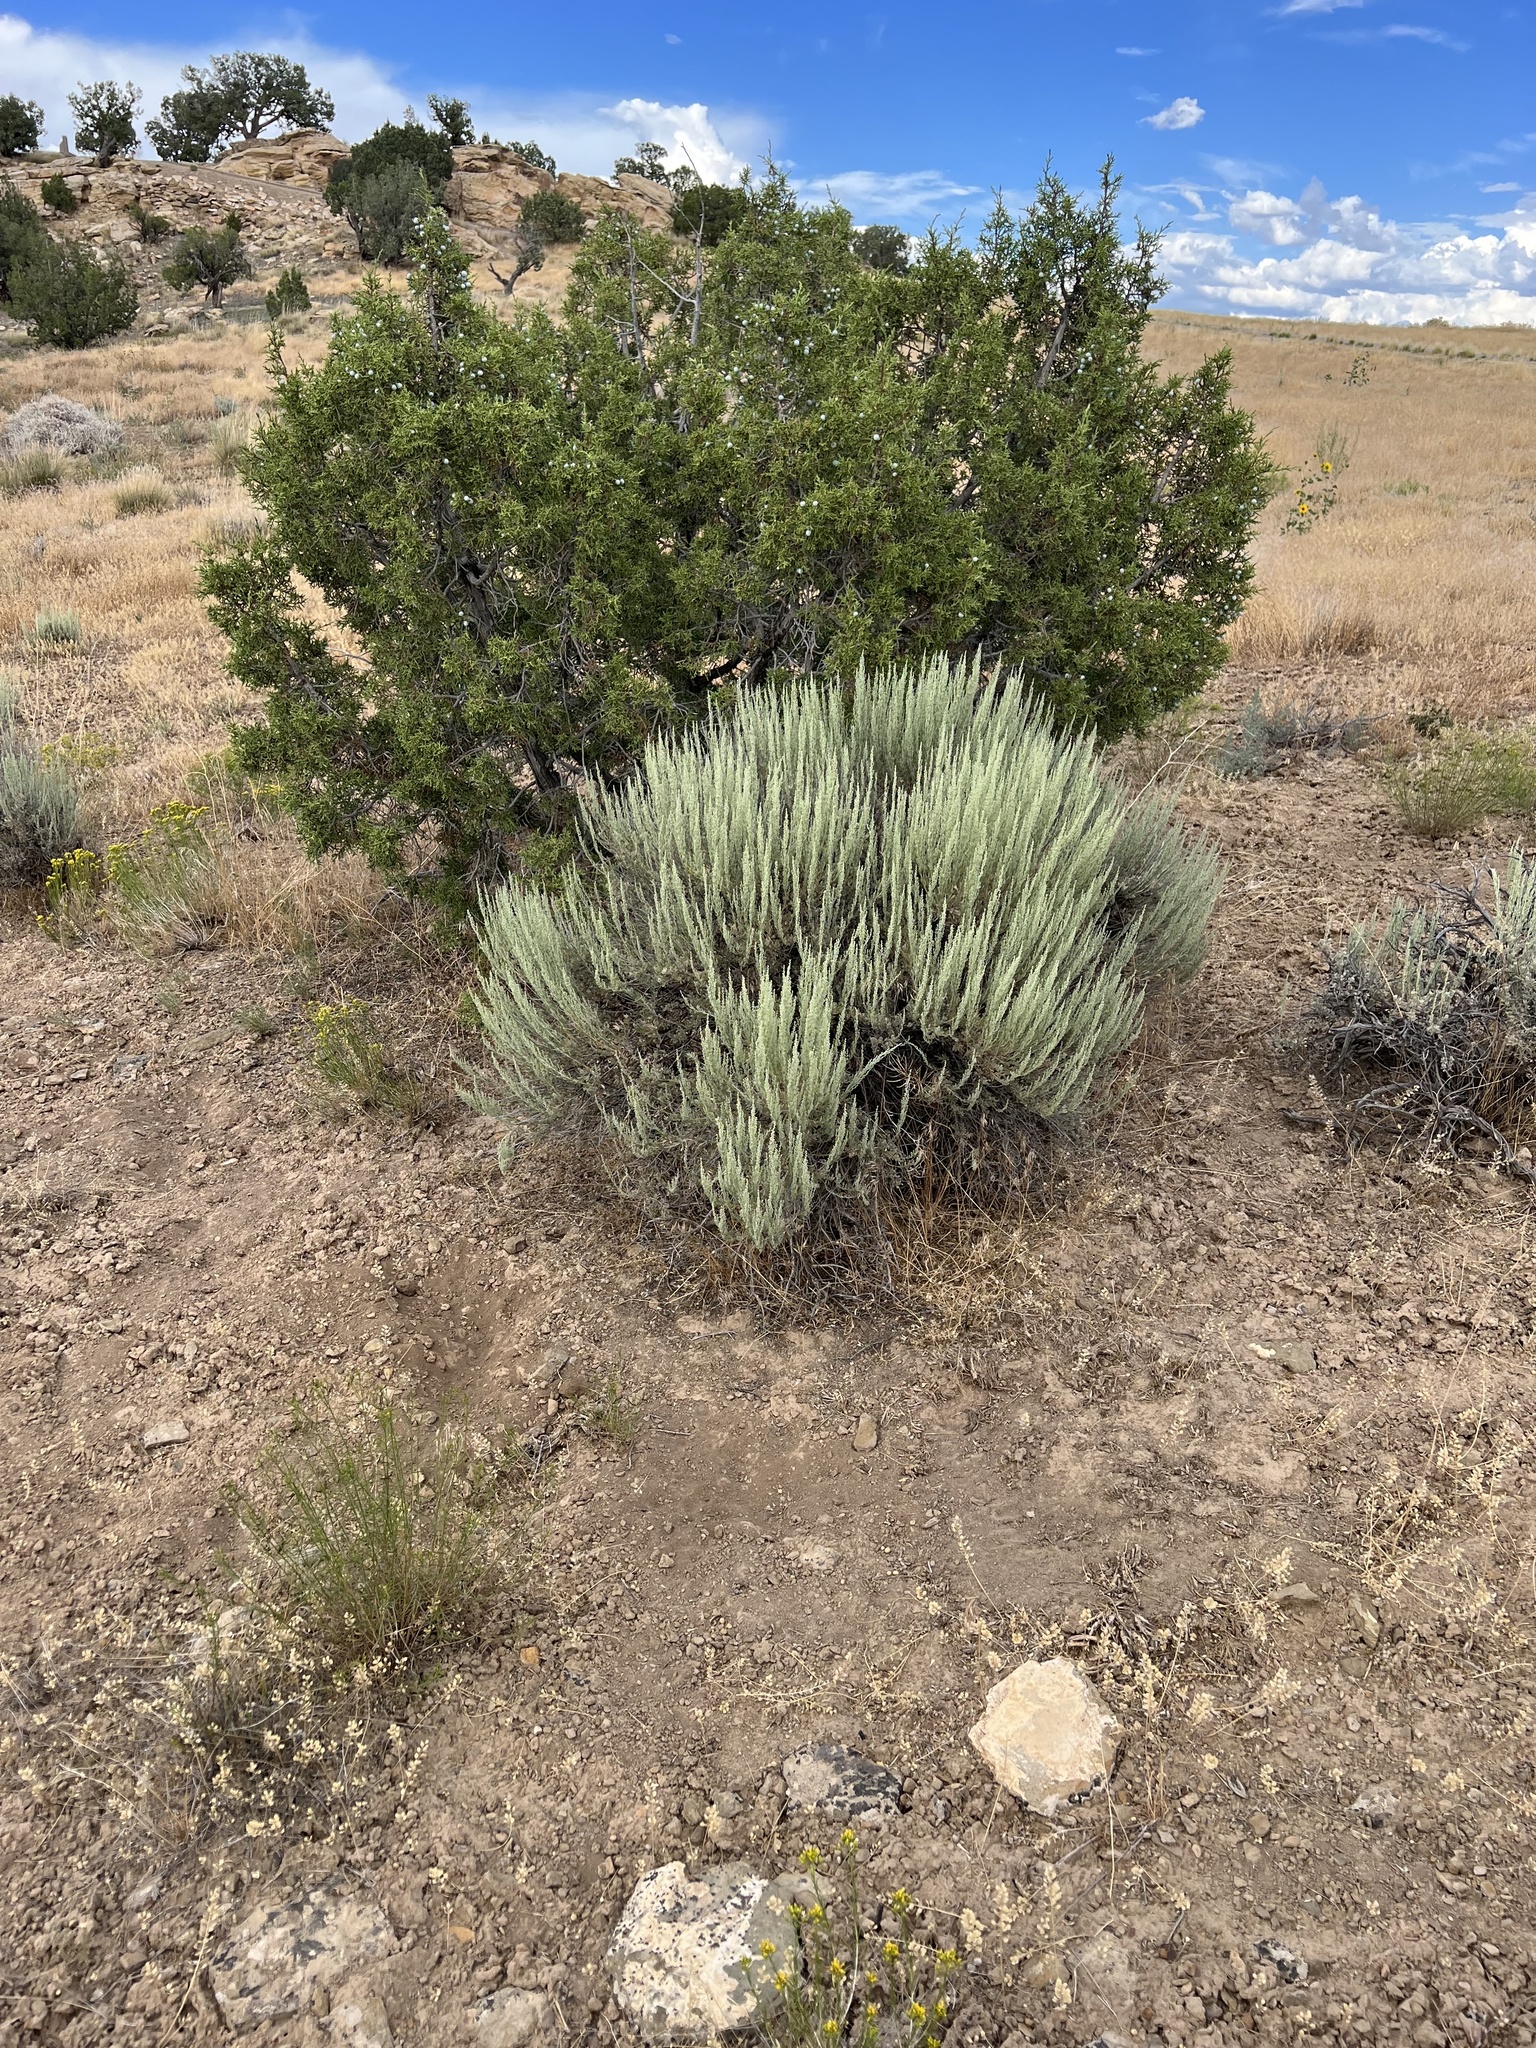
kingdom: Plantae
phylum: Tracheophyta
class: Magnoliopsida
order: Asterales
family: Asteraceae
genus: Artemisia
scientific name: Artemisia tridentata
